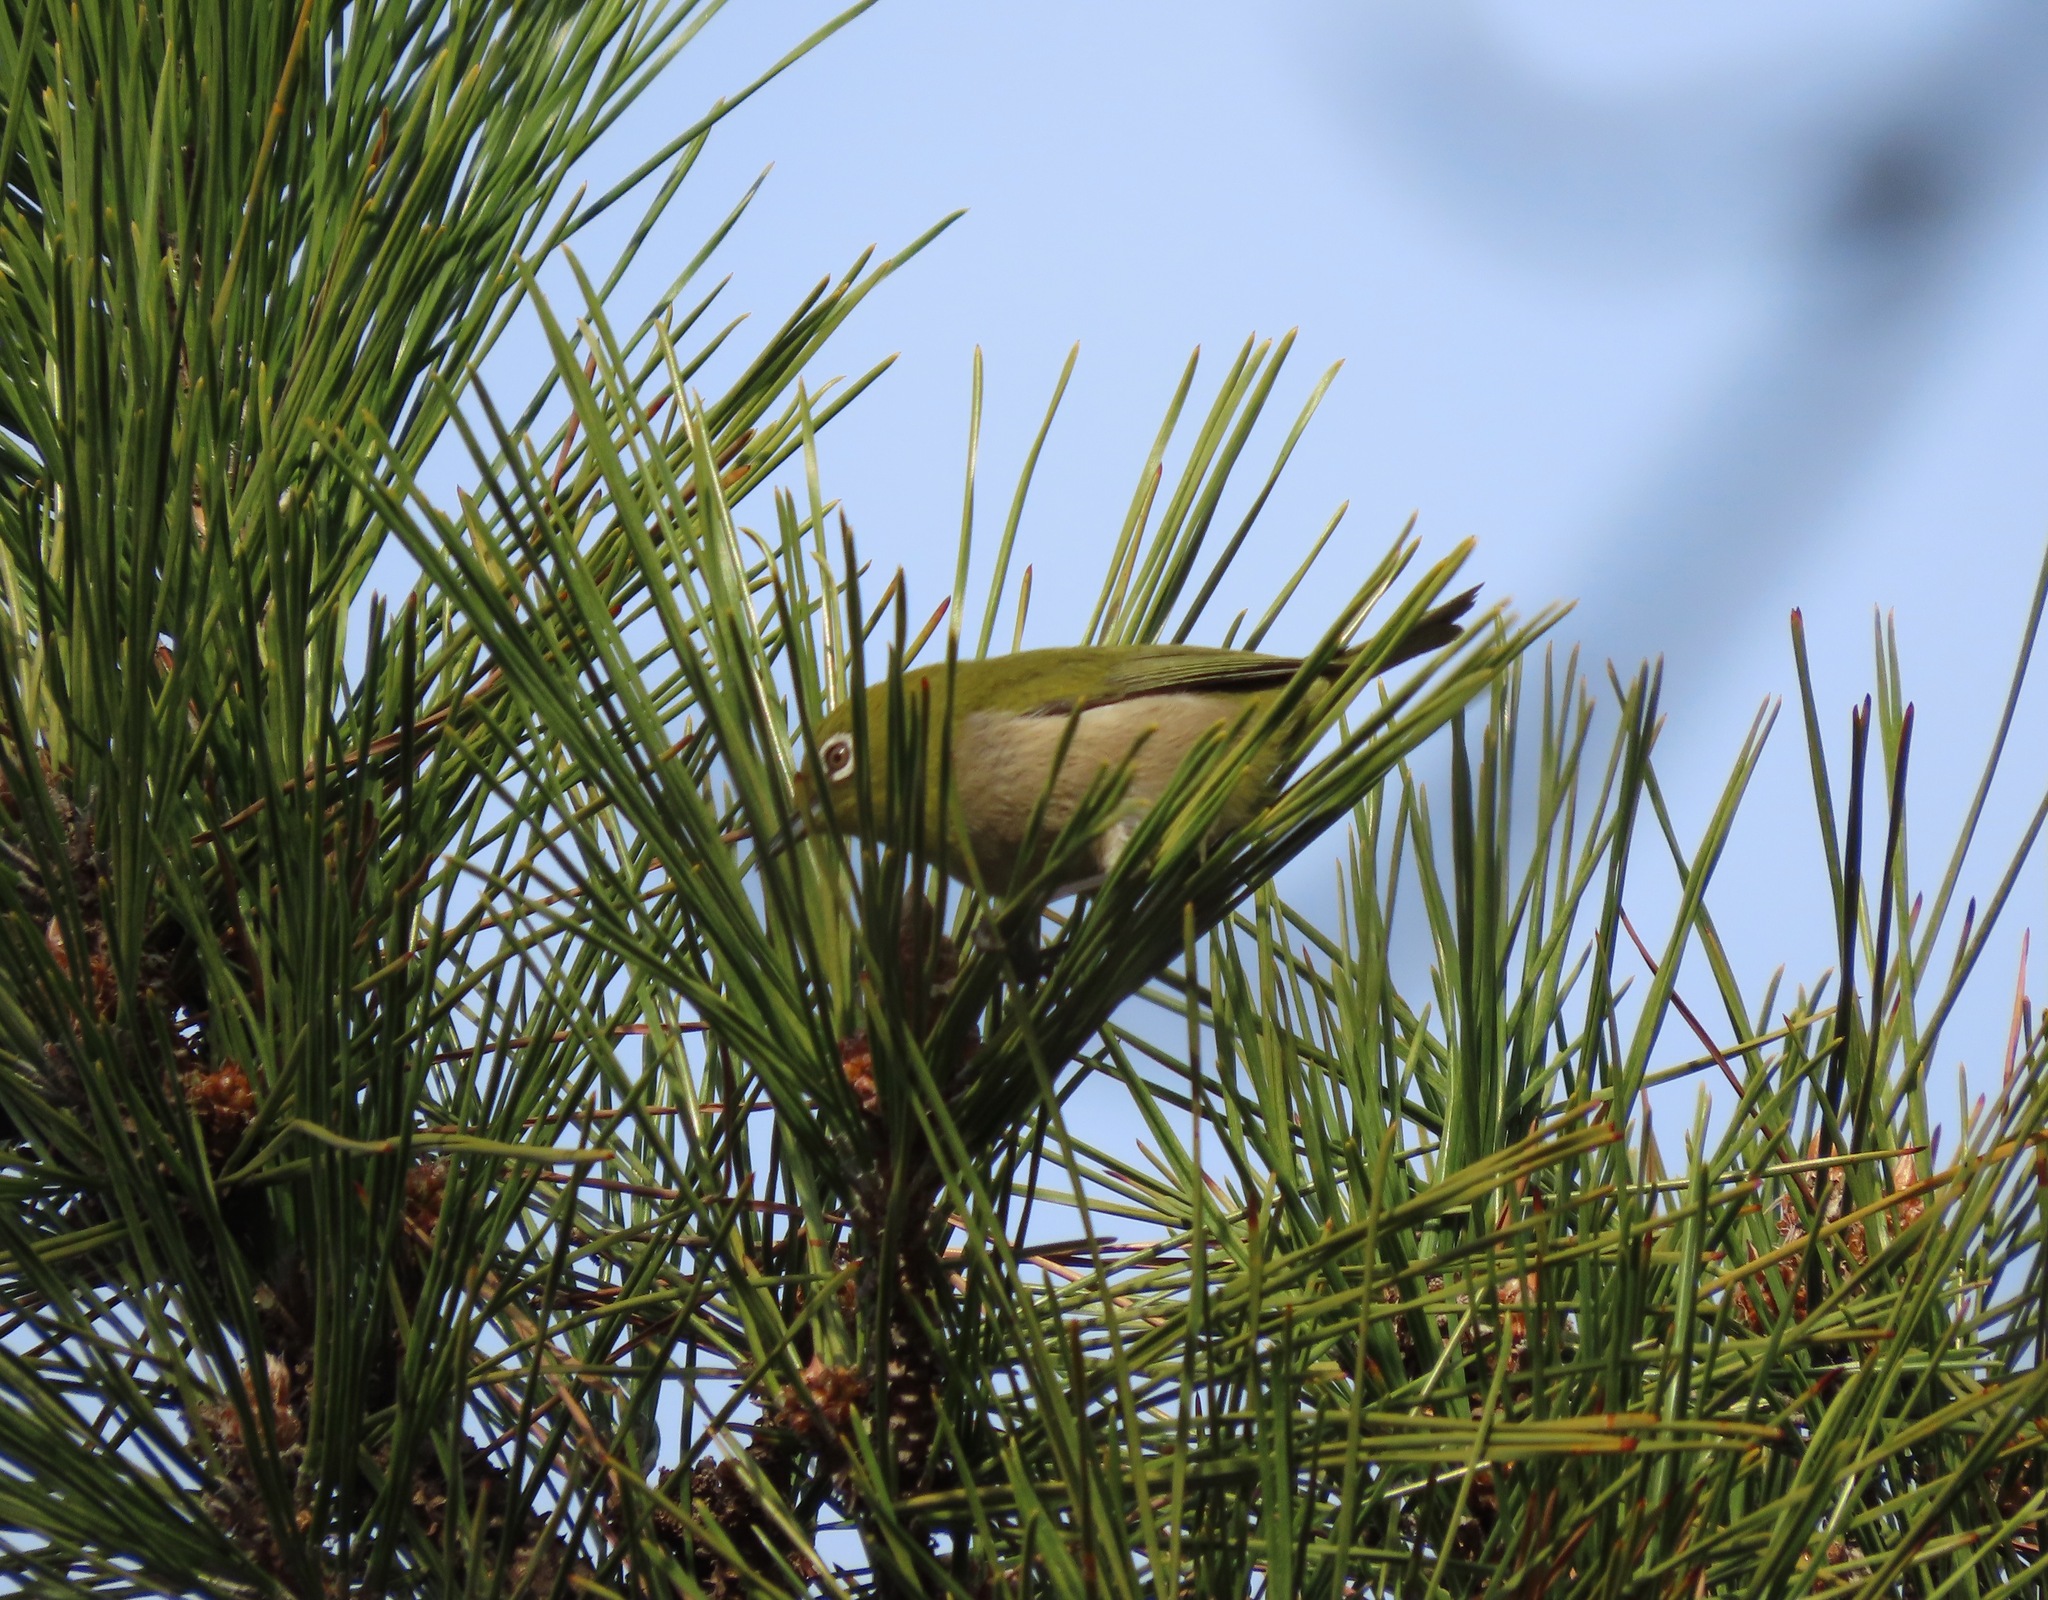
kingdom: Animalia
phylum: Chordata
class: Aves
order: Passeriformes
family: Zosteropidae
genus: Zosterops
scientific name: Zosterops japonicus
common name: Japanese white-eye
